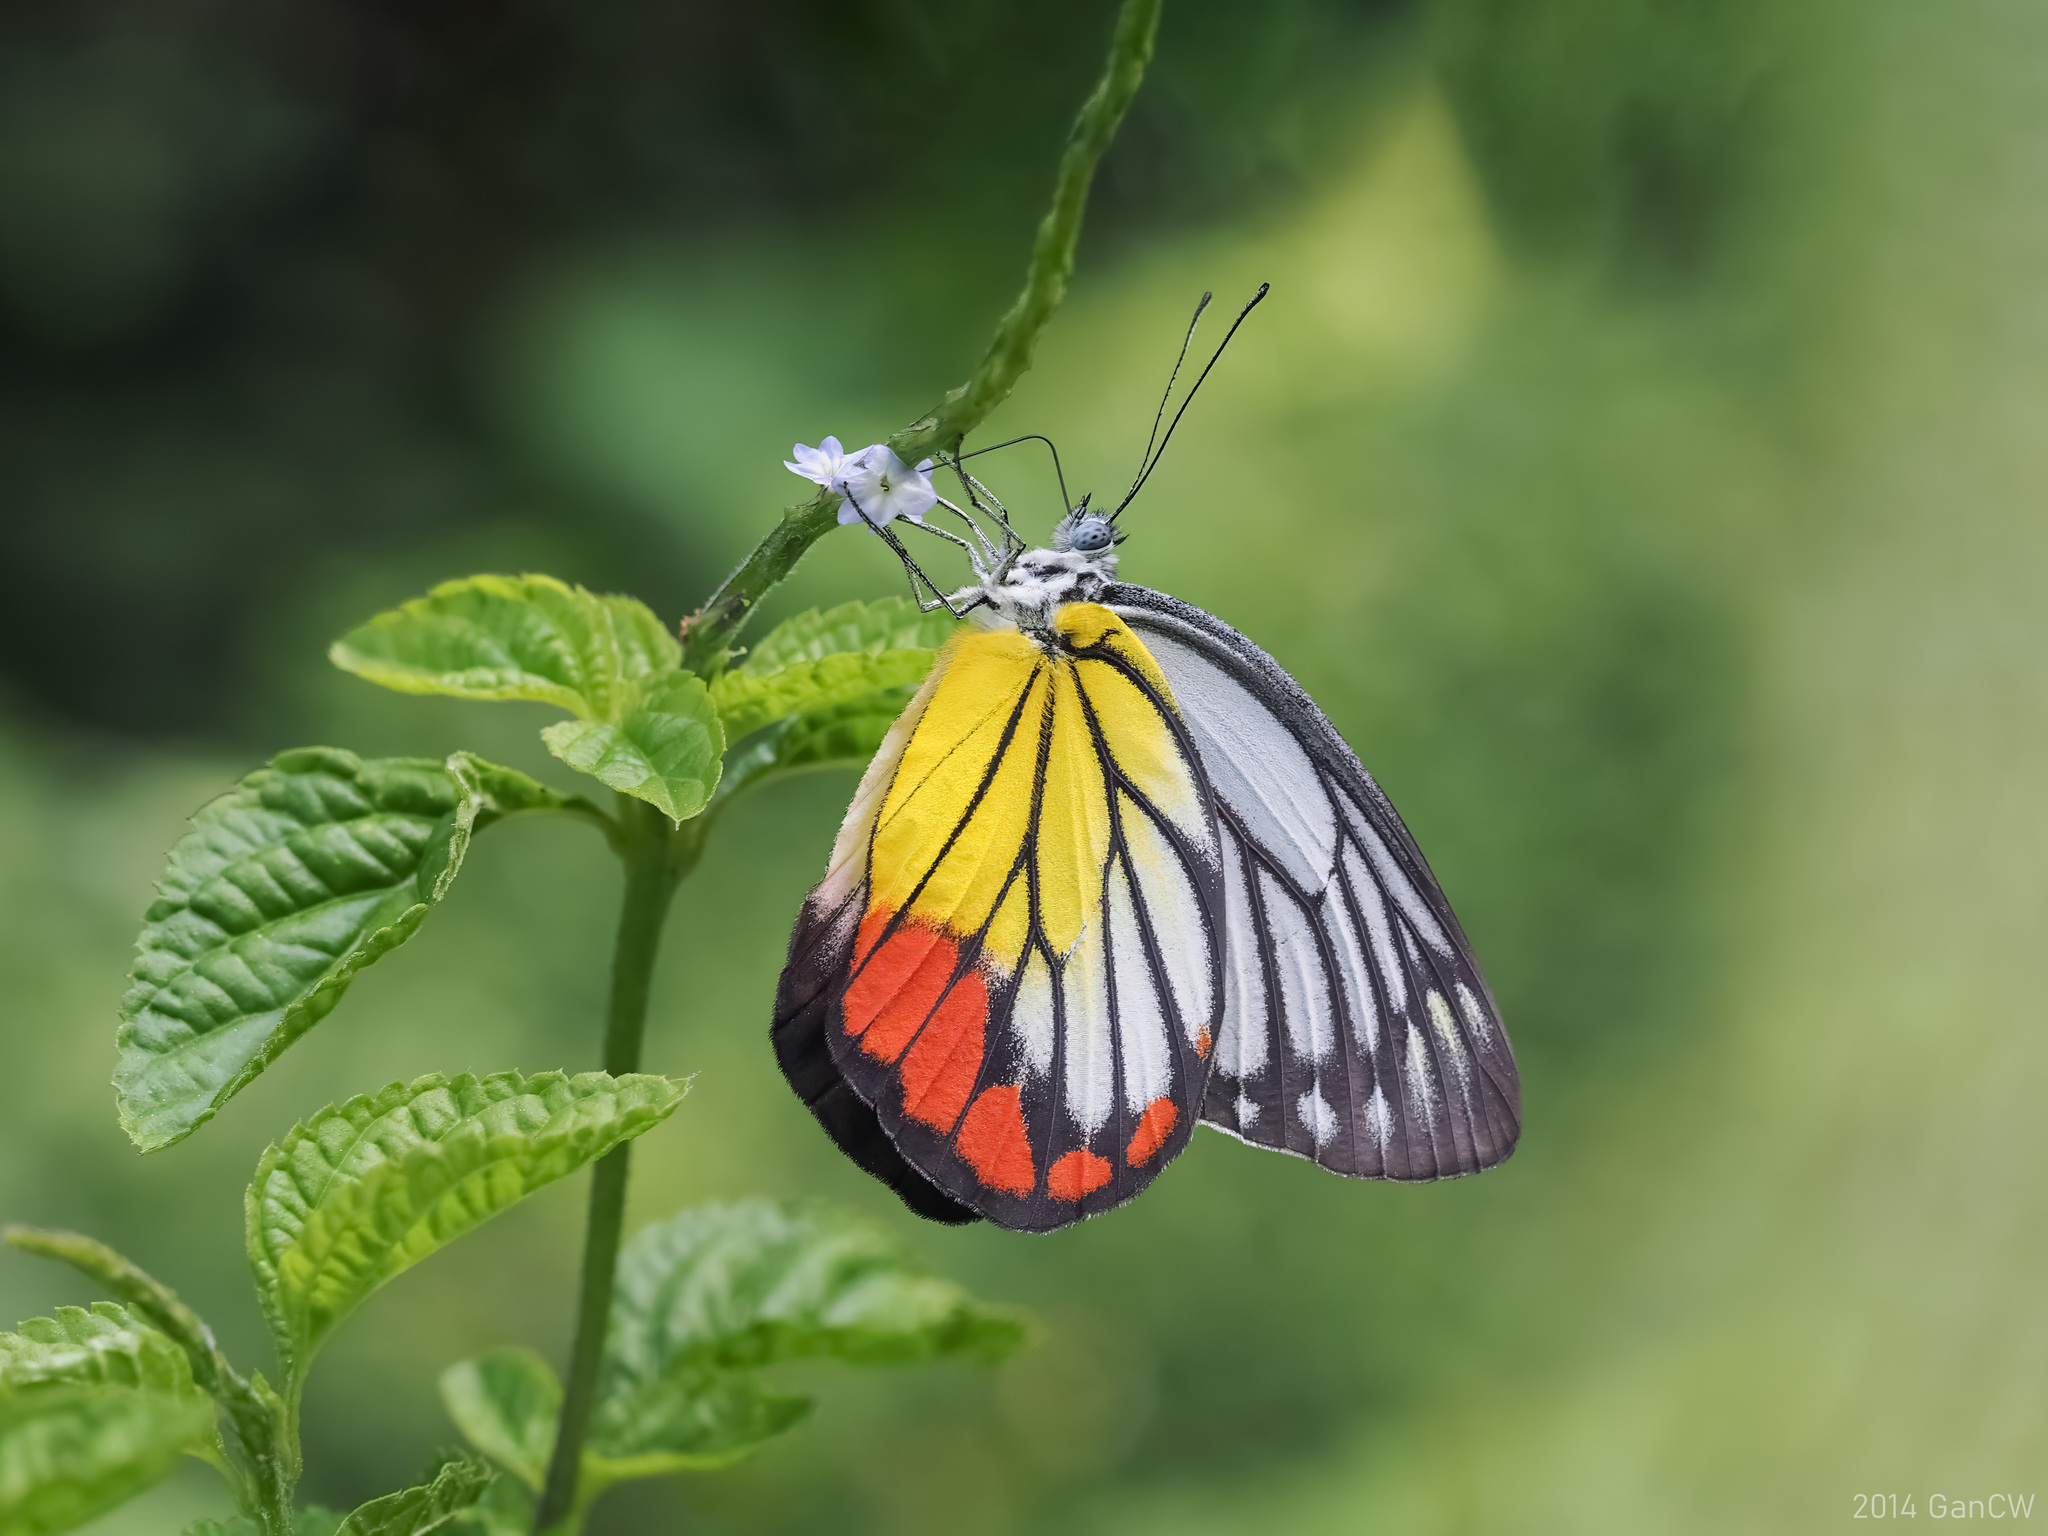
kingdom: Animalia
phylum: Arthropoda
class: Insecta
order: Lepidoptera
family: Pieridae
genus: Delias
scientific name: Delias hyparete
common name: Painted jezebel
